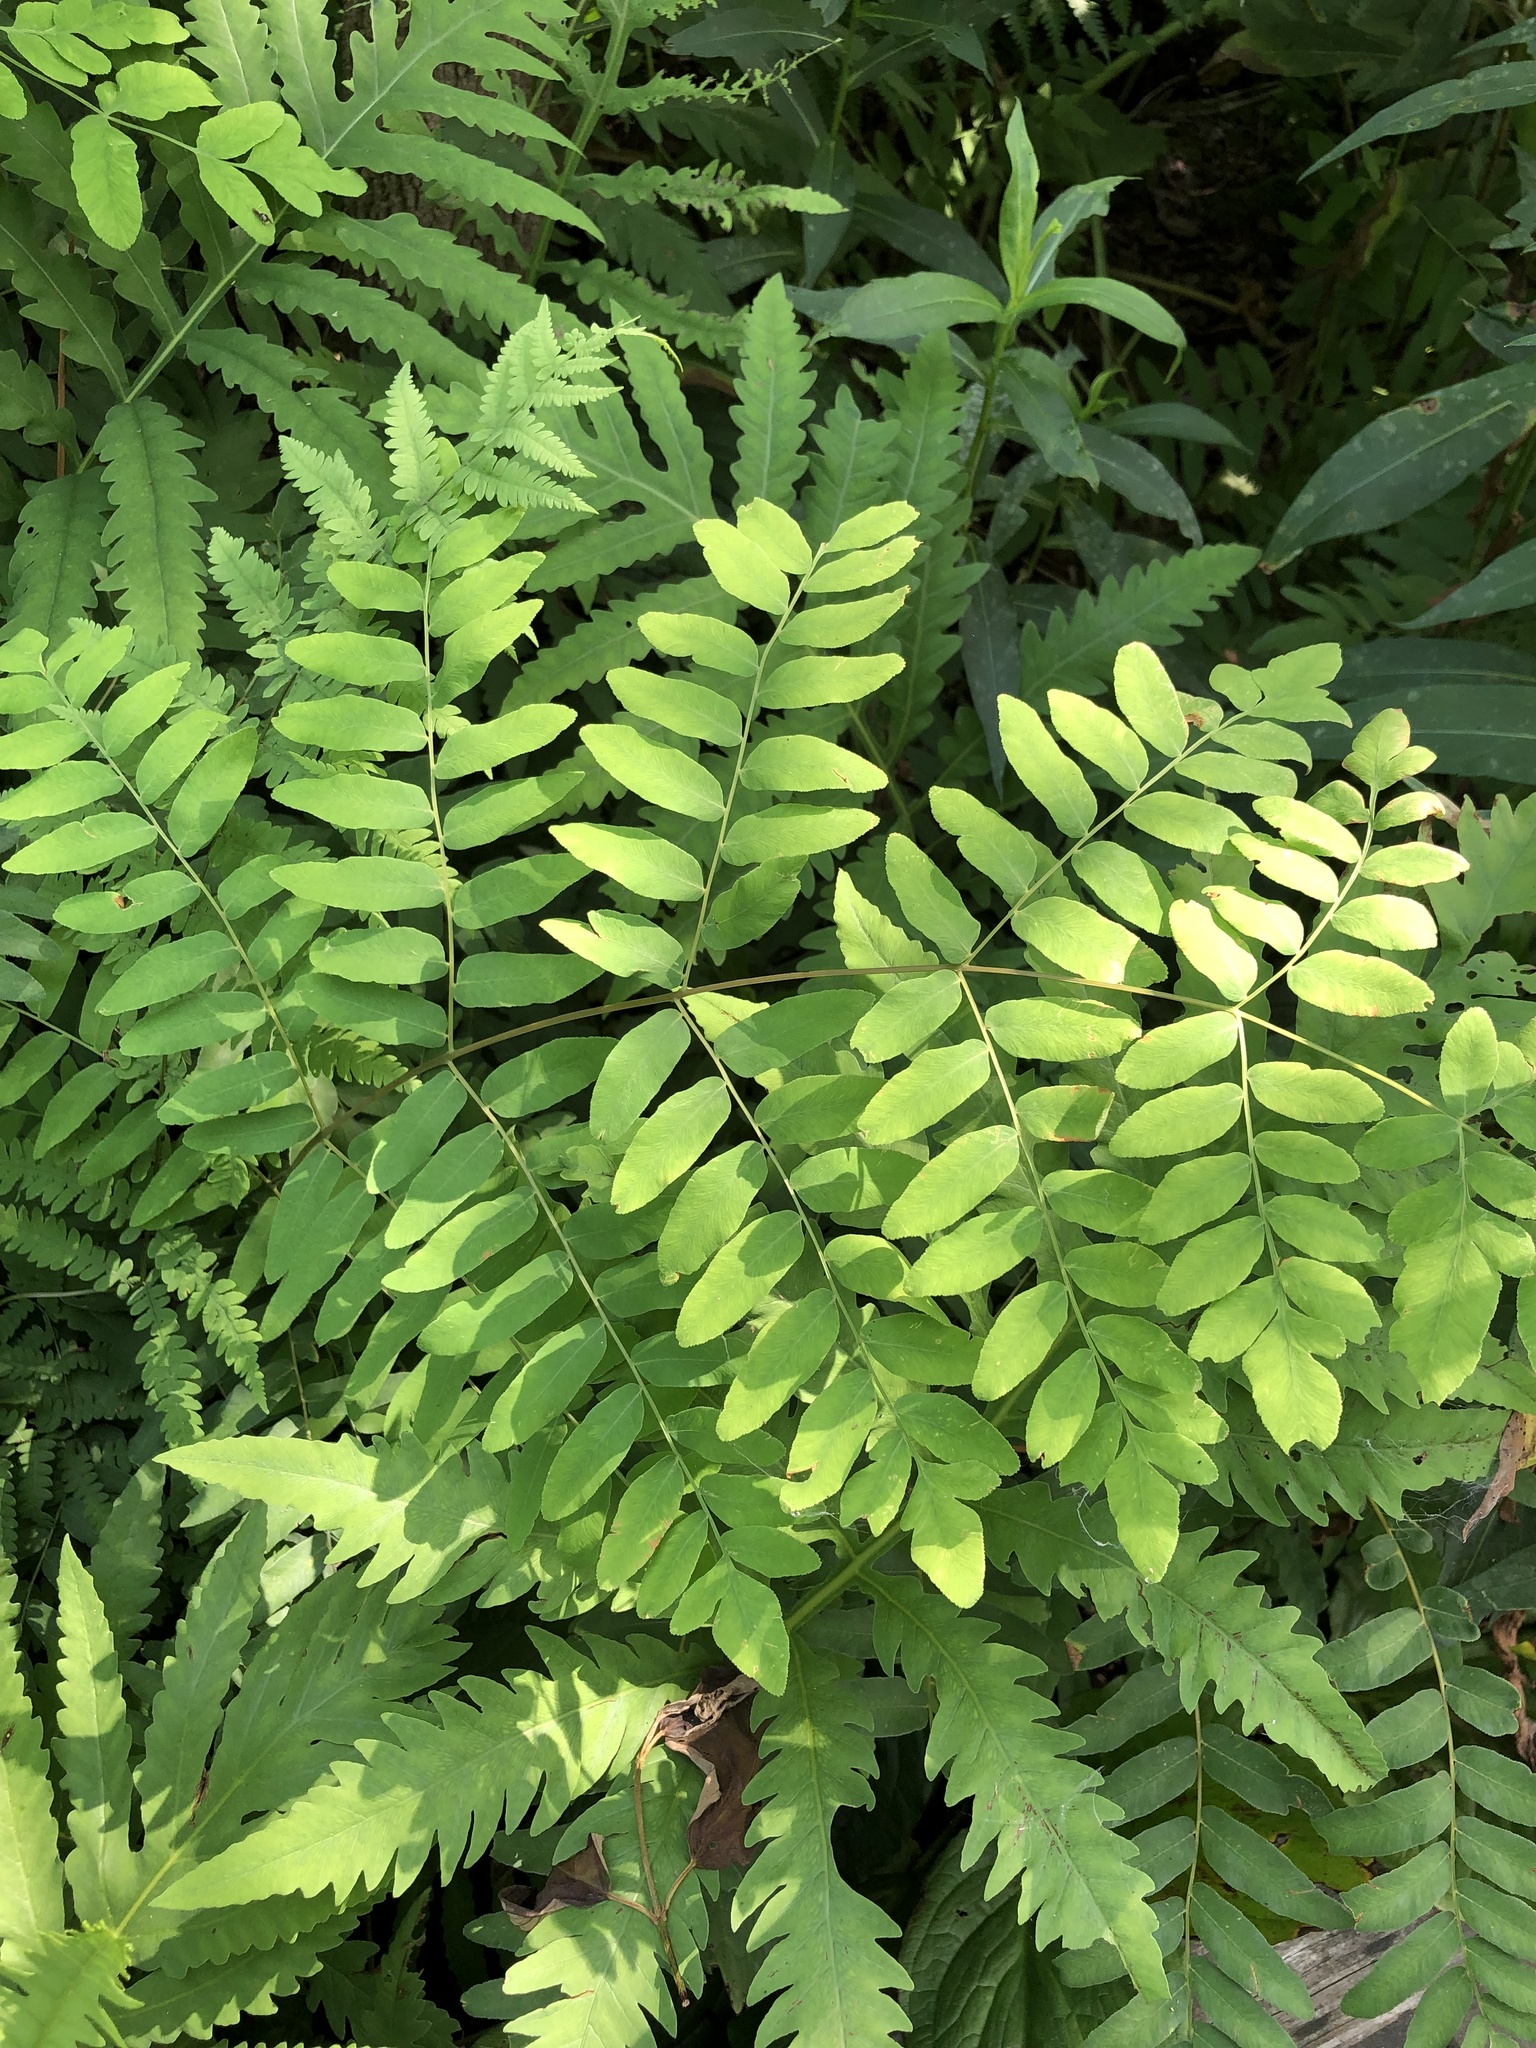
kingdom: Plantae
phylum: Tracheophyta
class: Polypodiopsida
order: Osmundales
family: Osmundaceae
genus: Osmunda
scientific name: Osmunda spectabilis
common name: American royal fern
